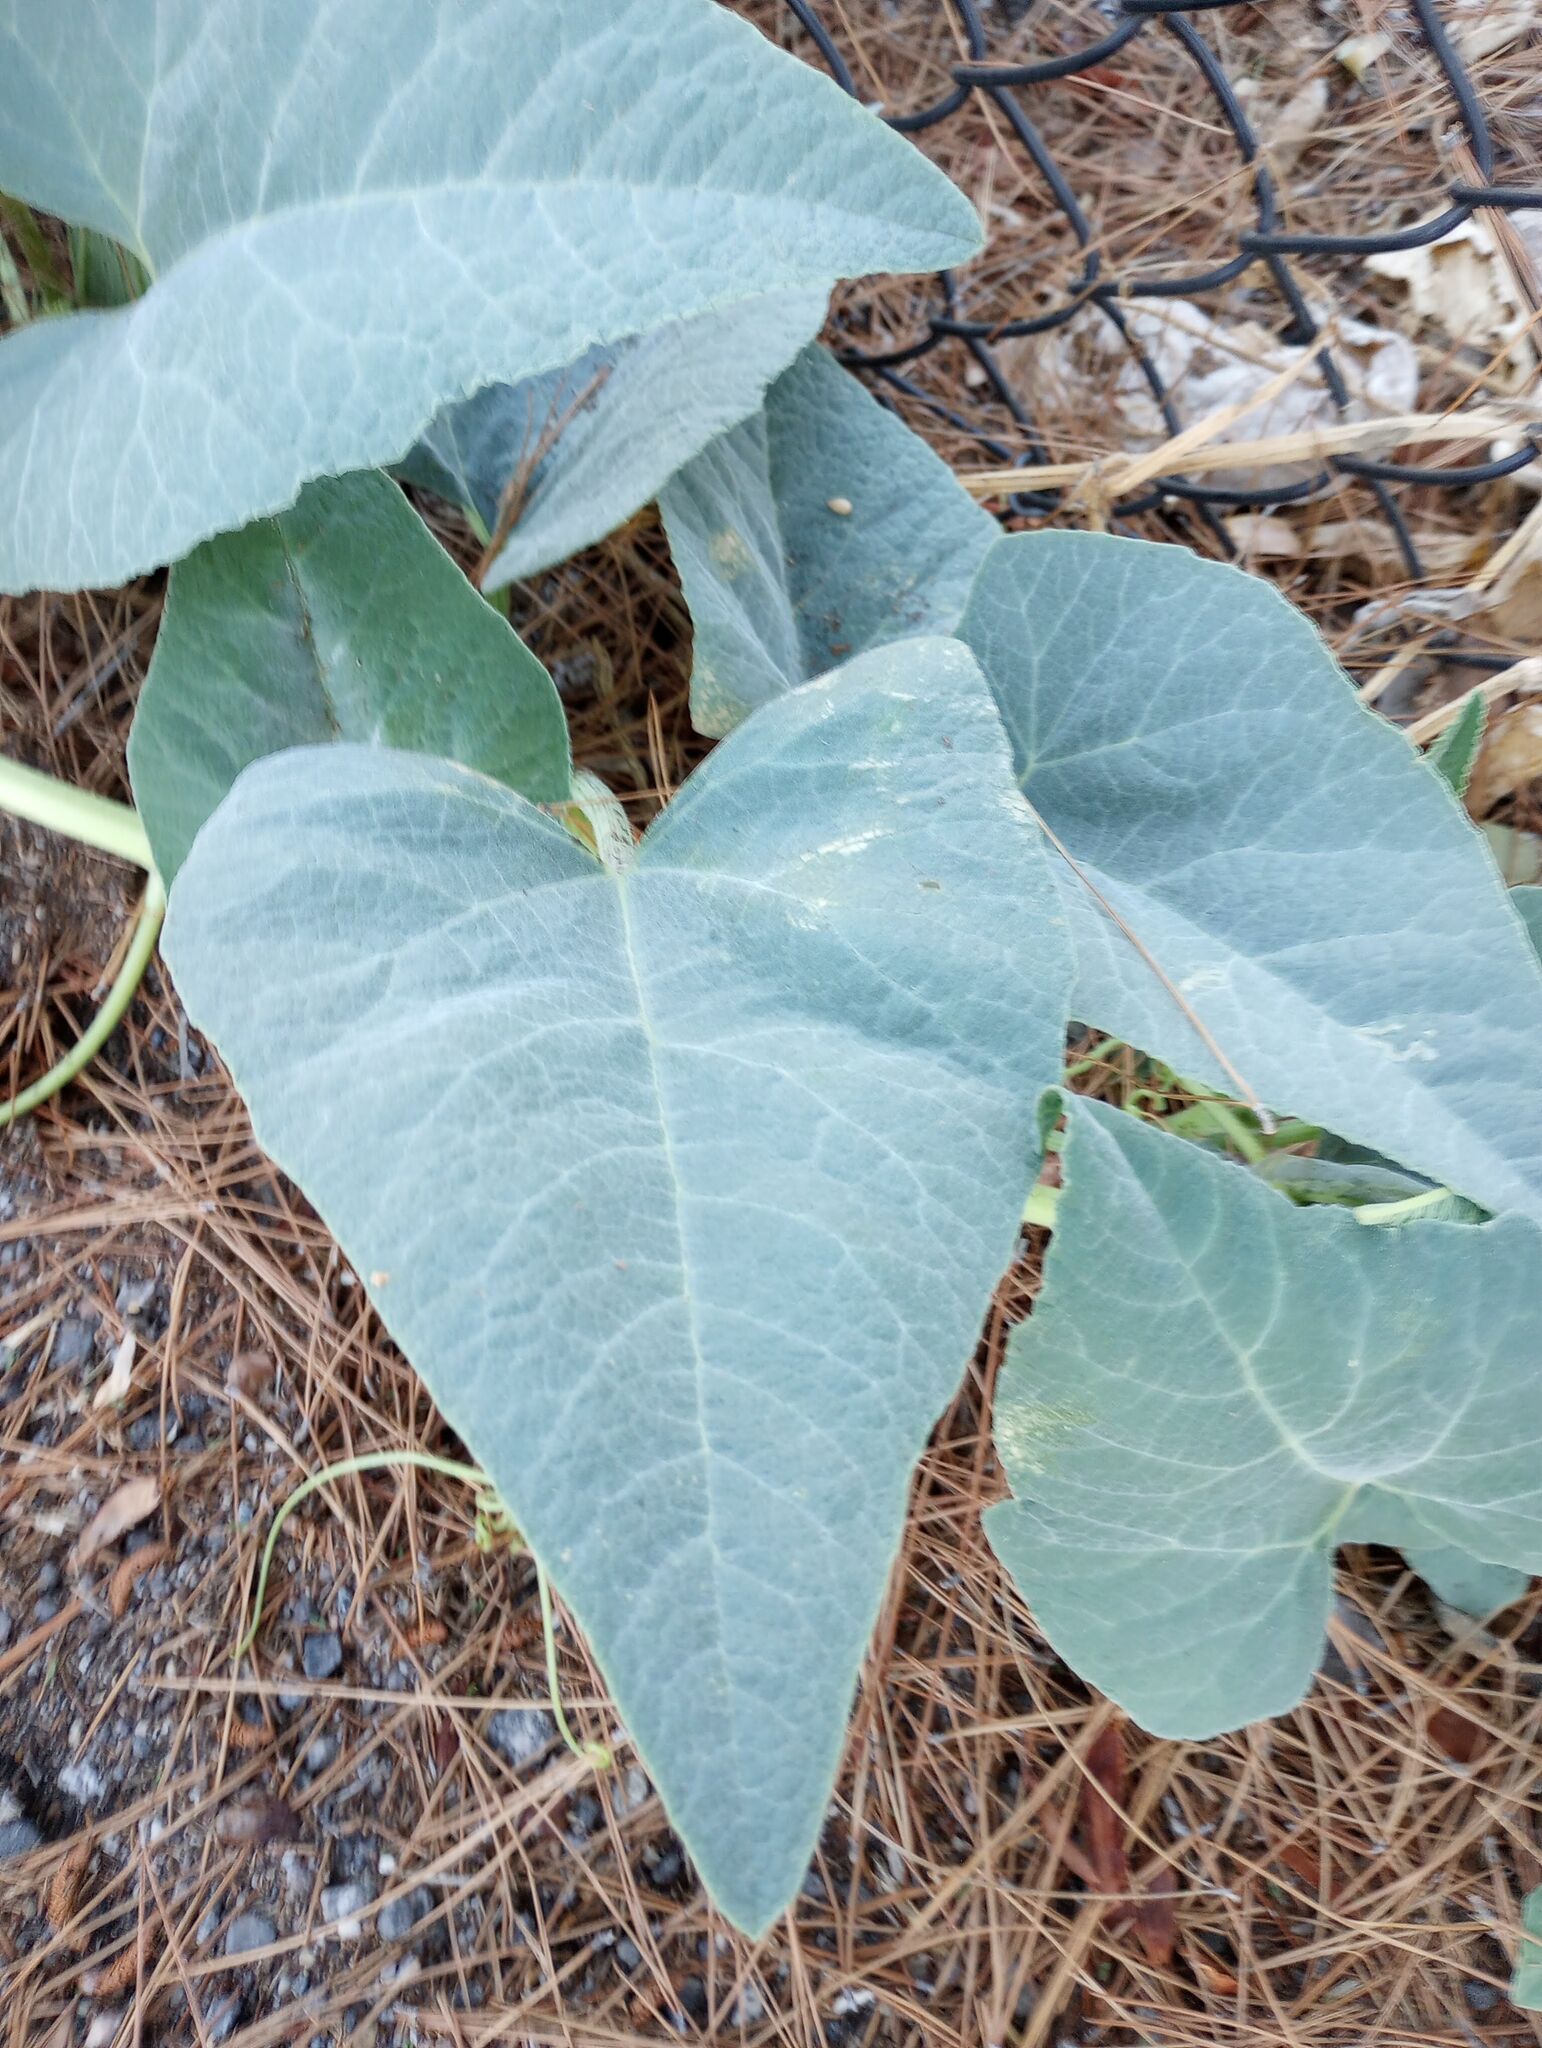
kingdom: Plantae
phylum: Tracheophyta
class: Magnoliopsida
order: Cucurbitales
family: Cucurbitaceae
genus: Cucurbita
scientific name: Cucurbita foetidissima
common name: Buffalo gourd
